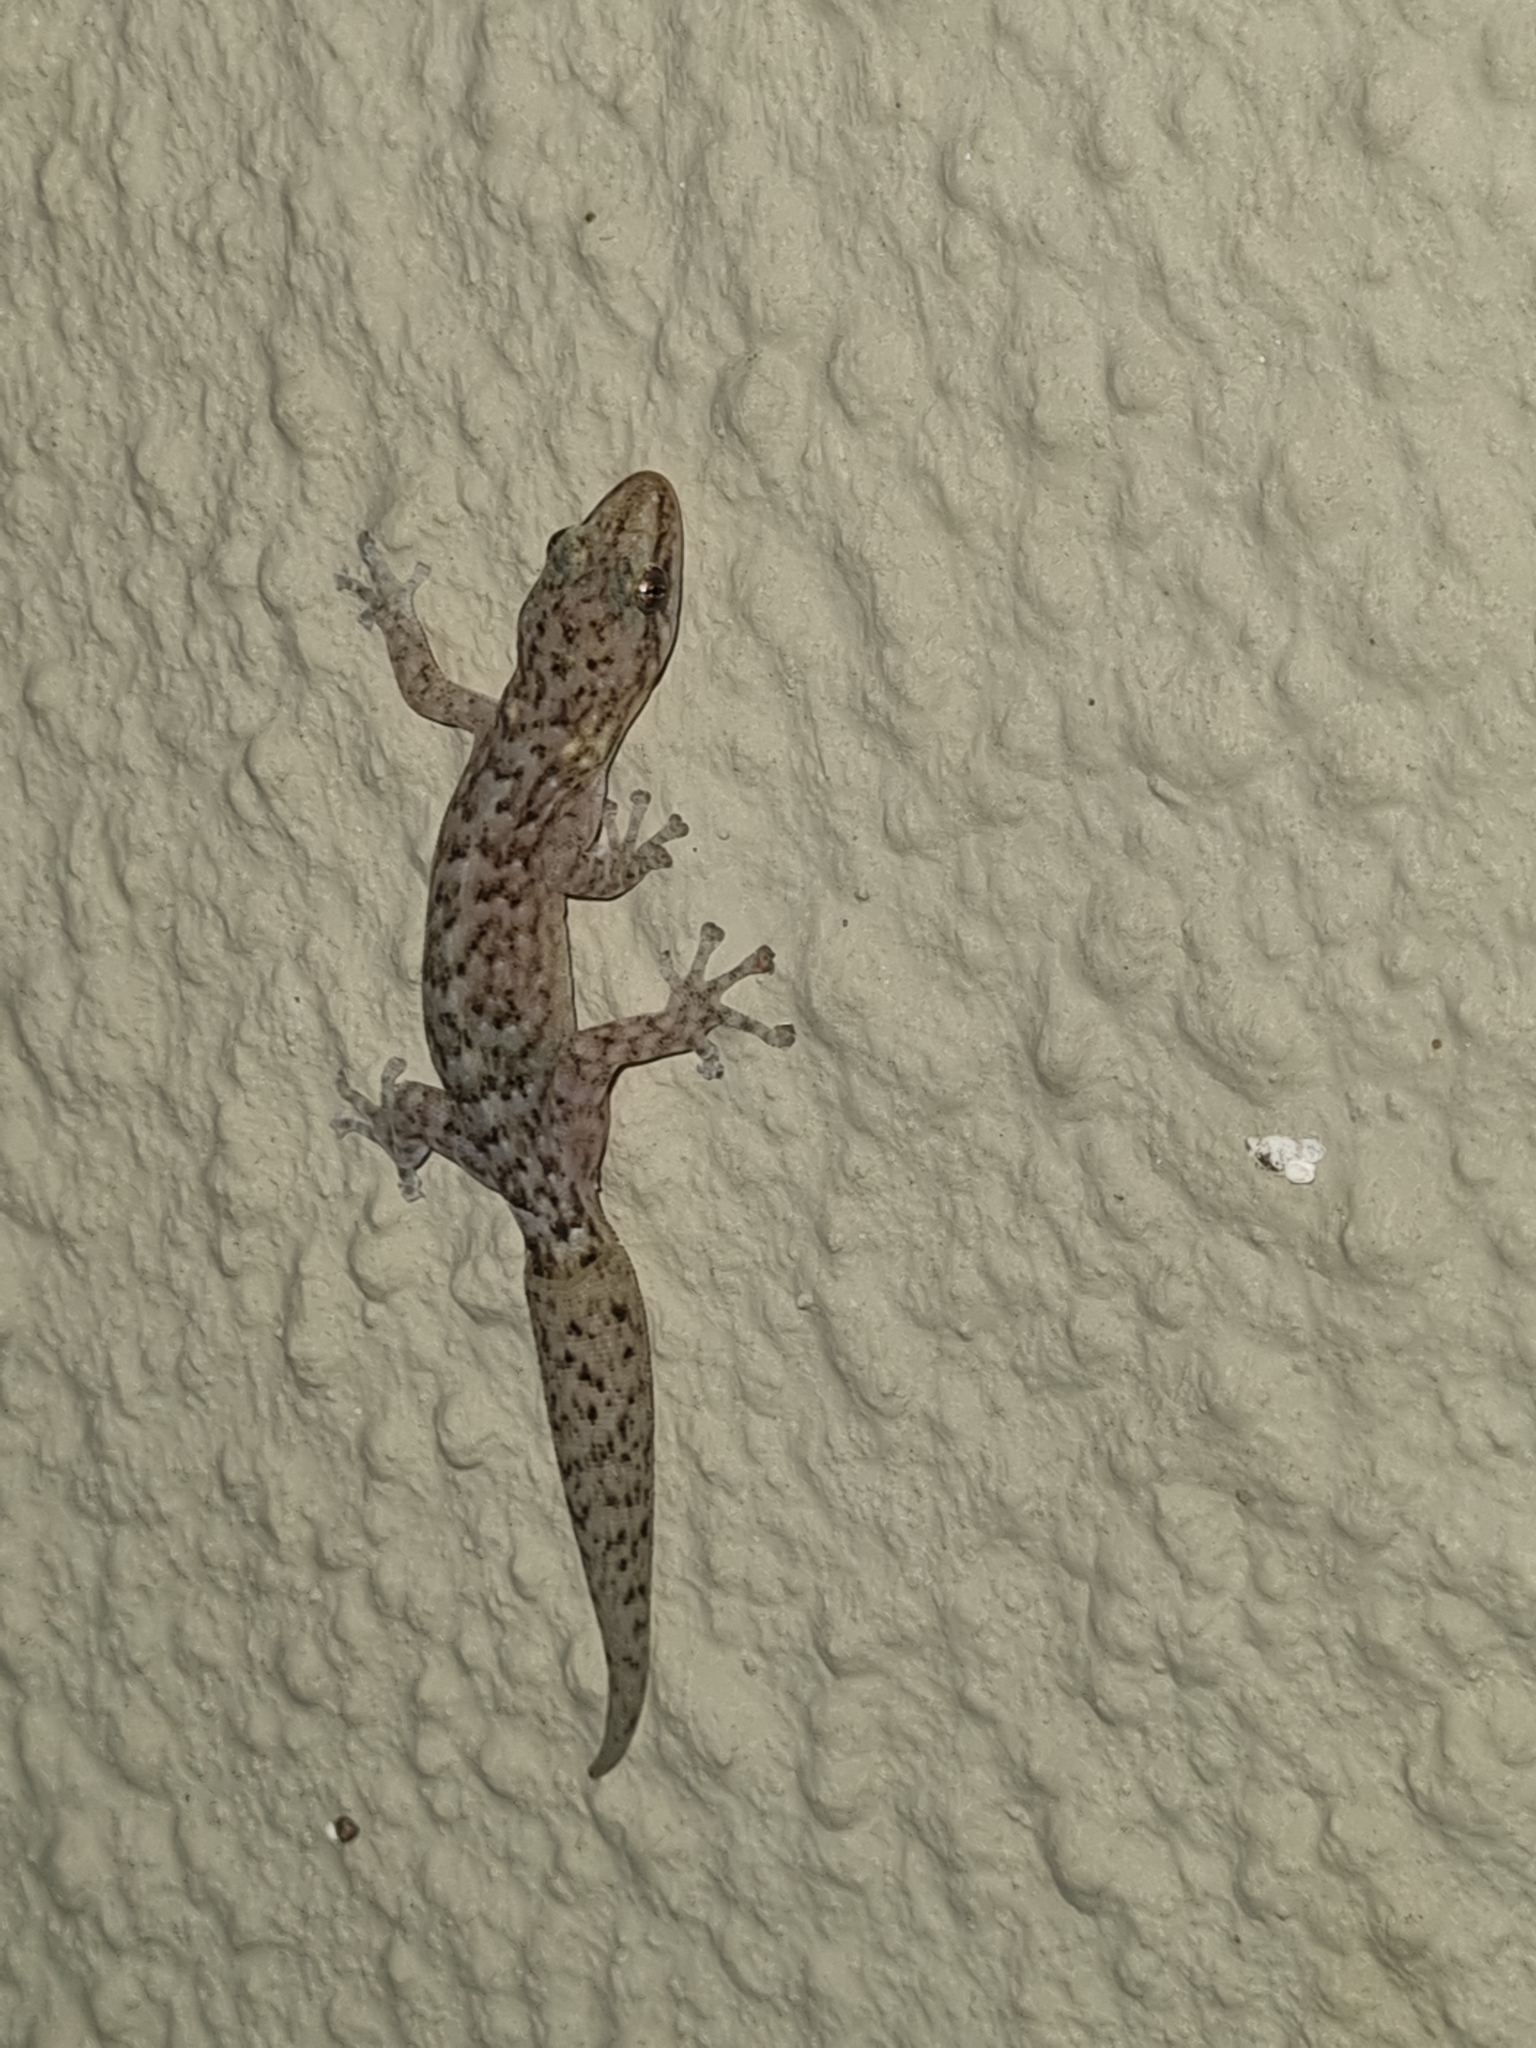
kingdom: Animalia
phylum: Chordata
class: Squamata
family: Gekkonidae
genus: Afrogecko
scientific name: Afrogecko porphyreus
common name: Marbled leaf-toed gecko
